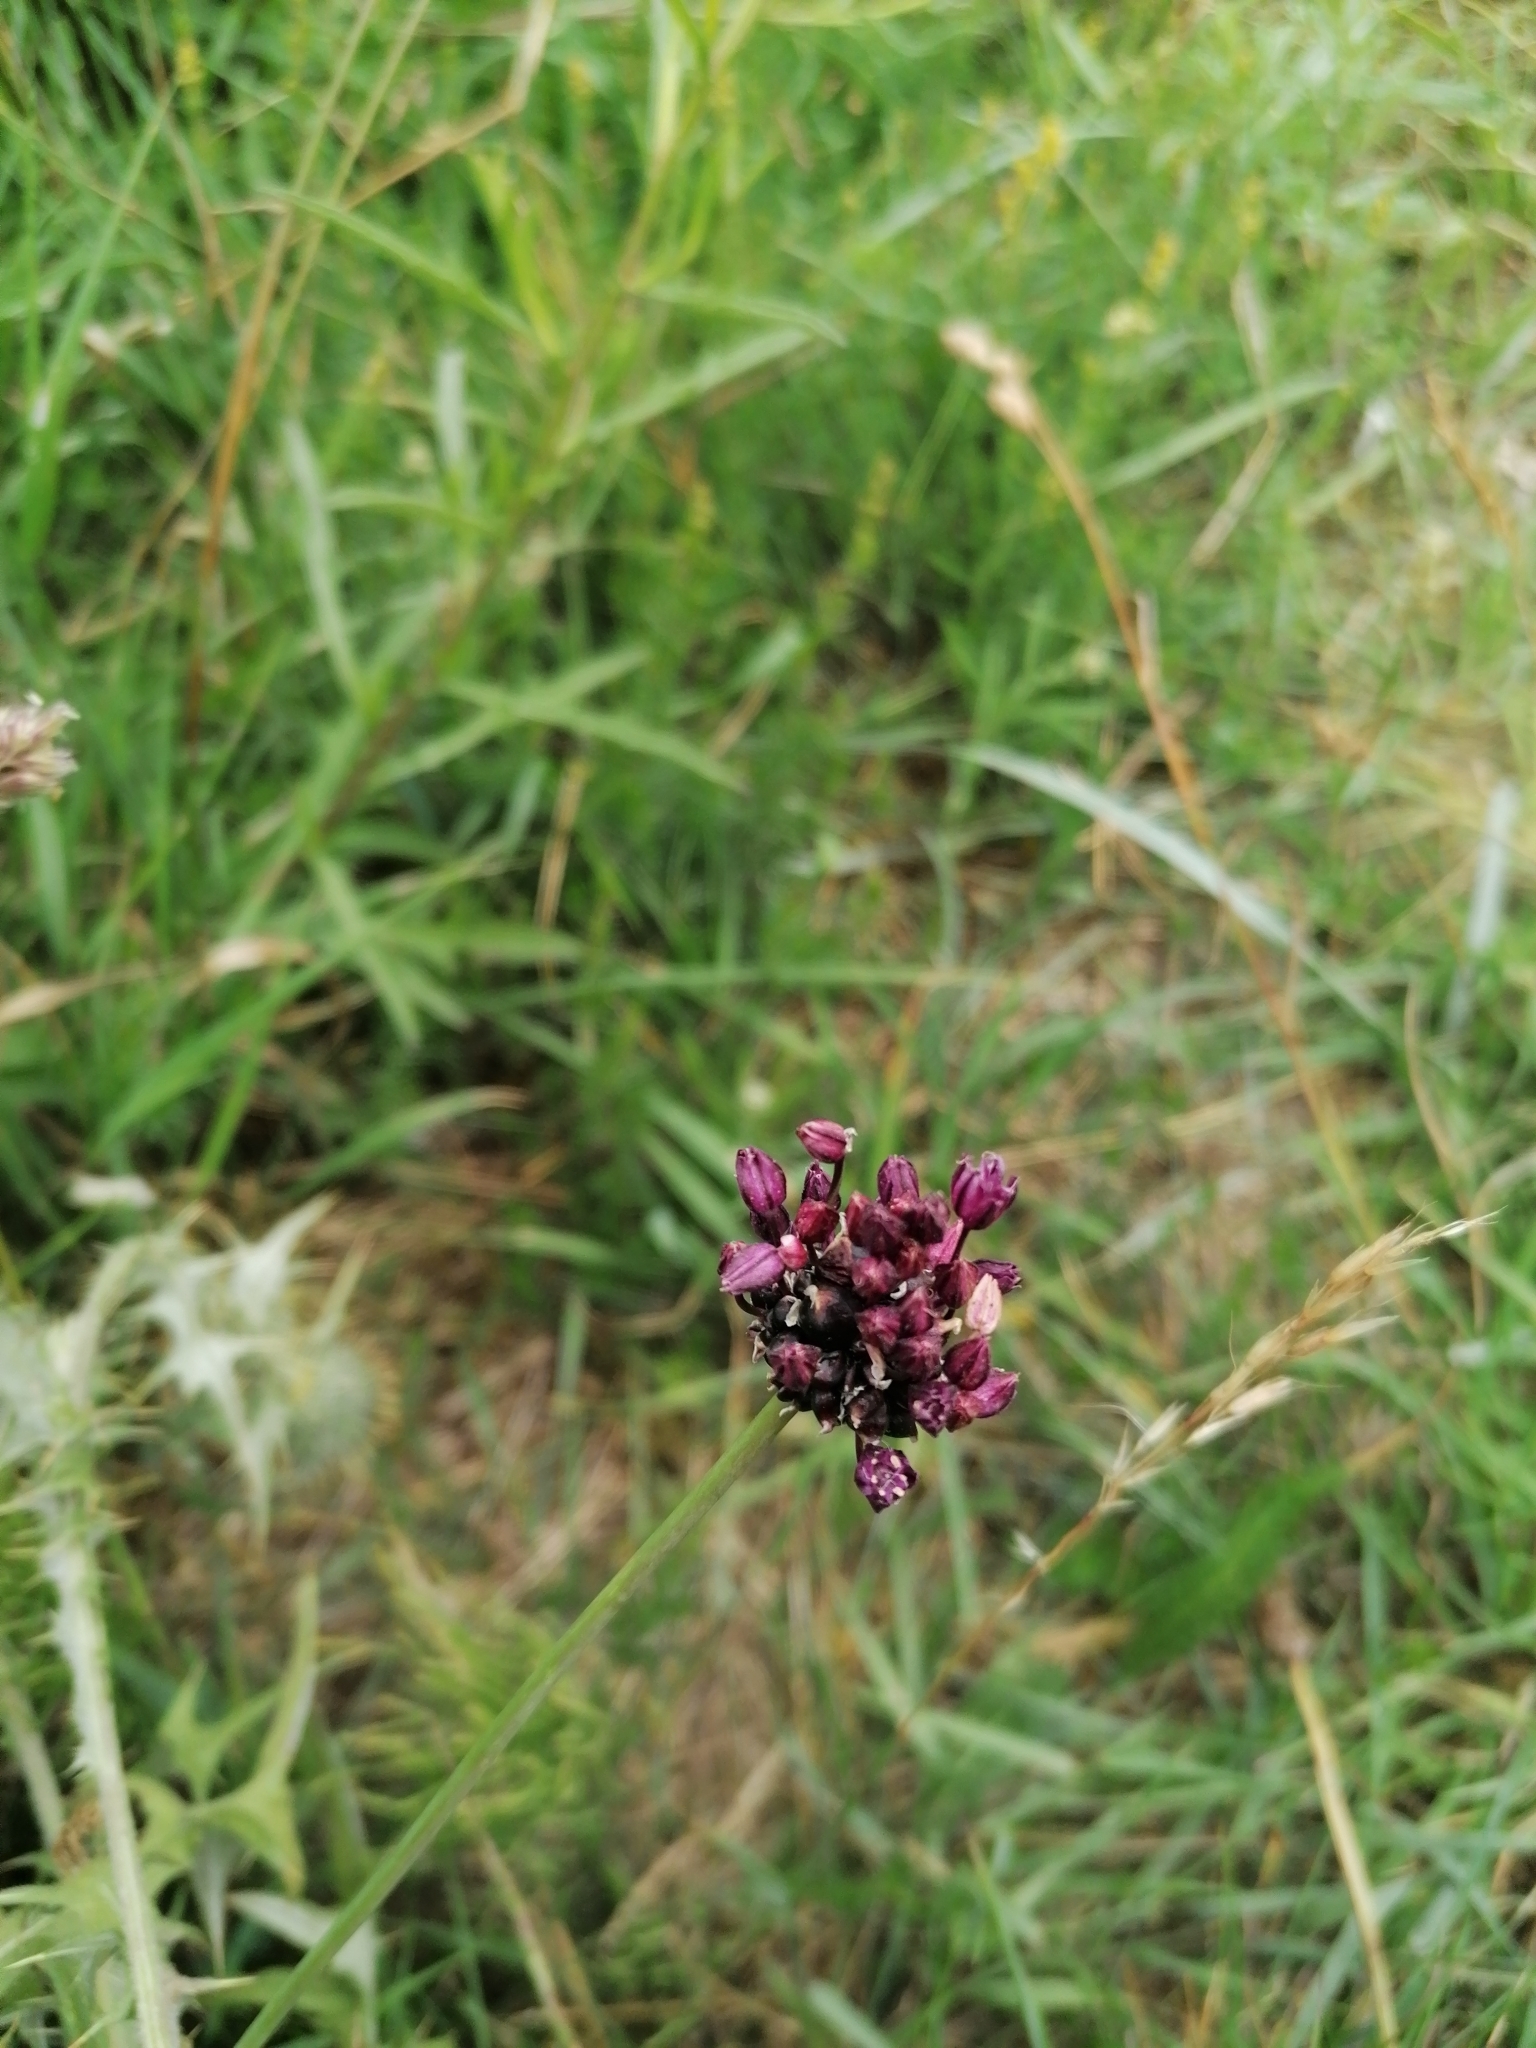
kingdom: Plantae
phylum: Tracheophyta
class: Liliopsida
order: Asparagales
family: Amaryllidaceae
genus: Allium
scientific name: Allium scorodoprasum
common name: Sand leek
